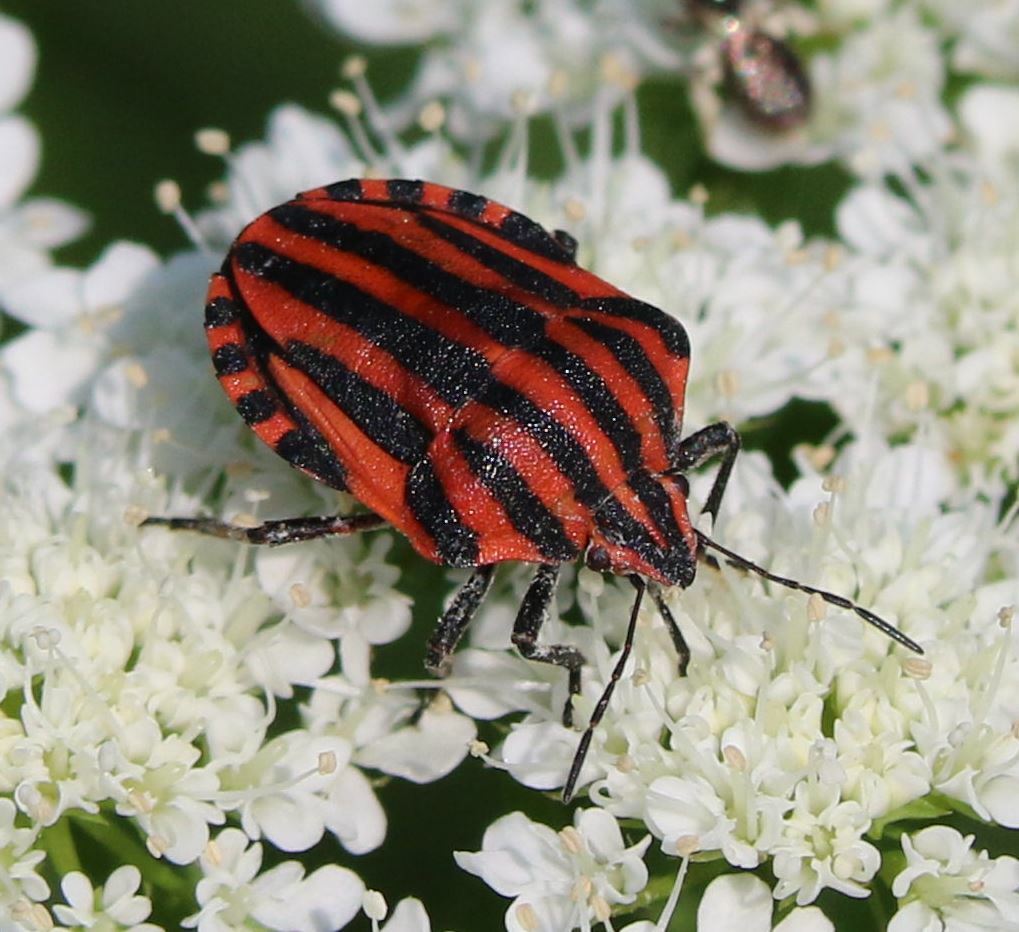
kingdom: Animalia
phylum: Arthropoda
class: Insecta
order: Hemiptera
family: Pentatomidae
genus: Graphosoma
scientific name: Graphosoma italicum
